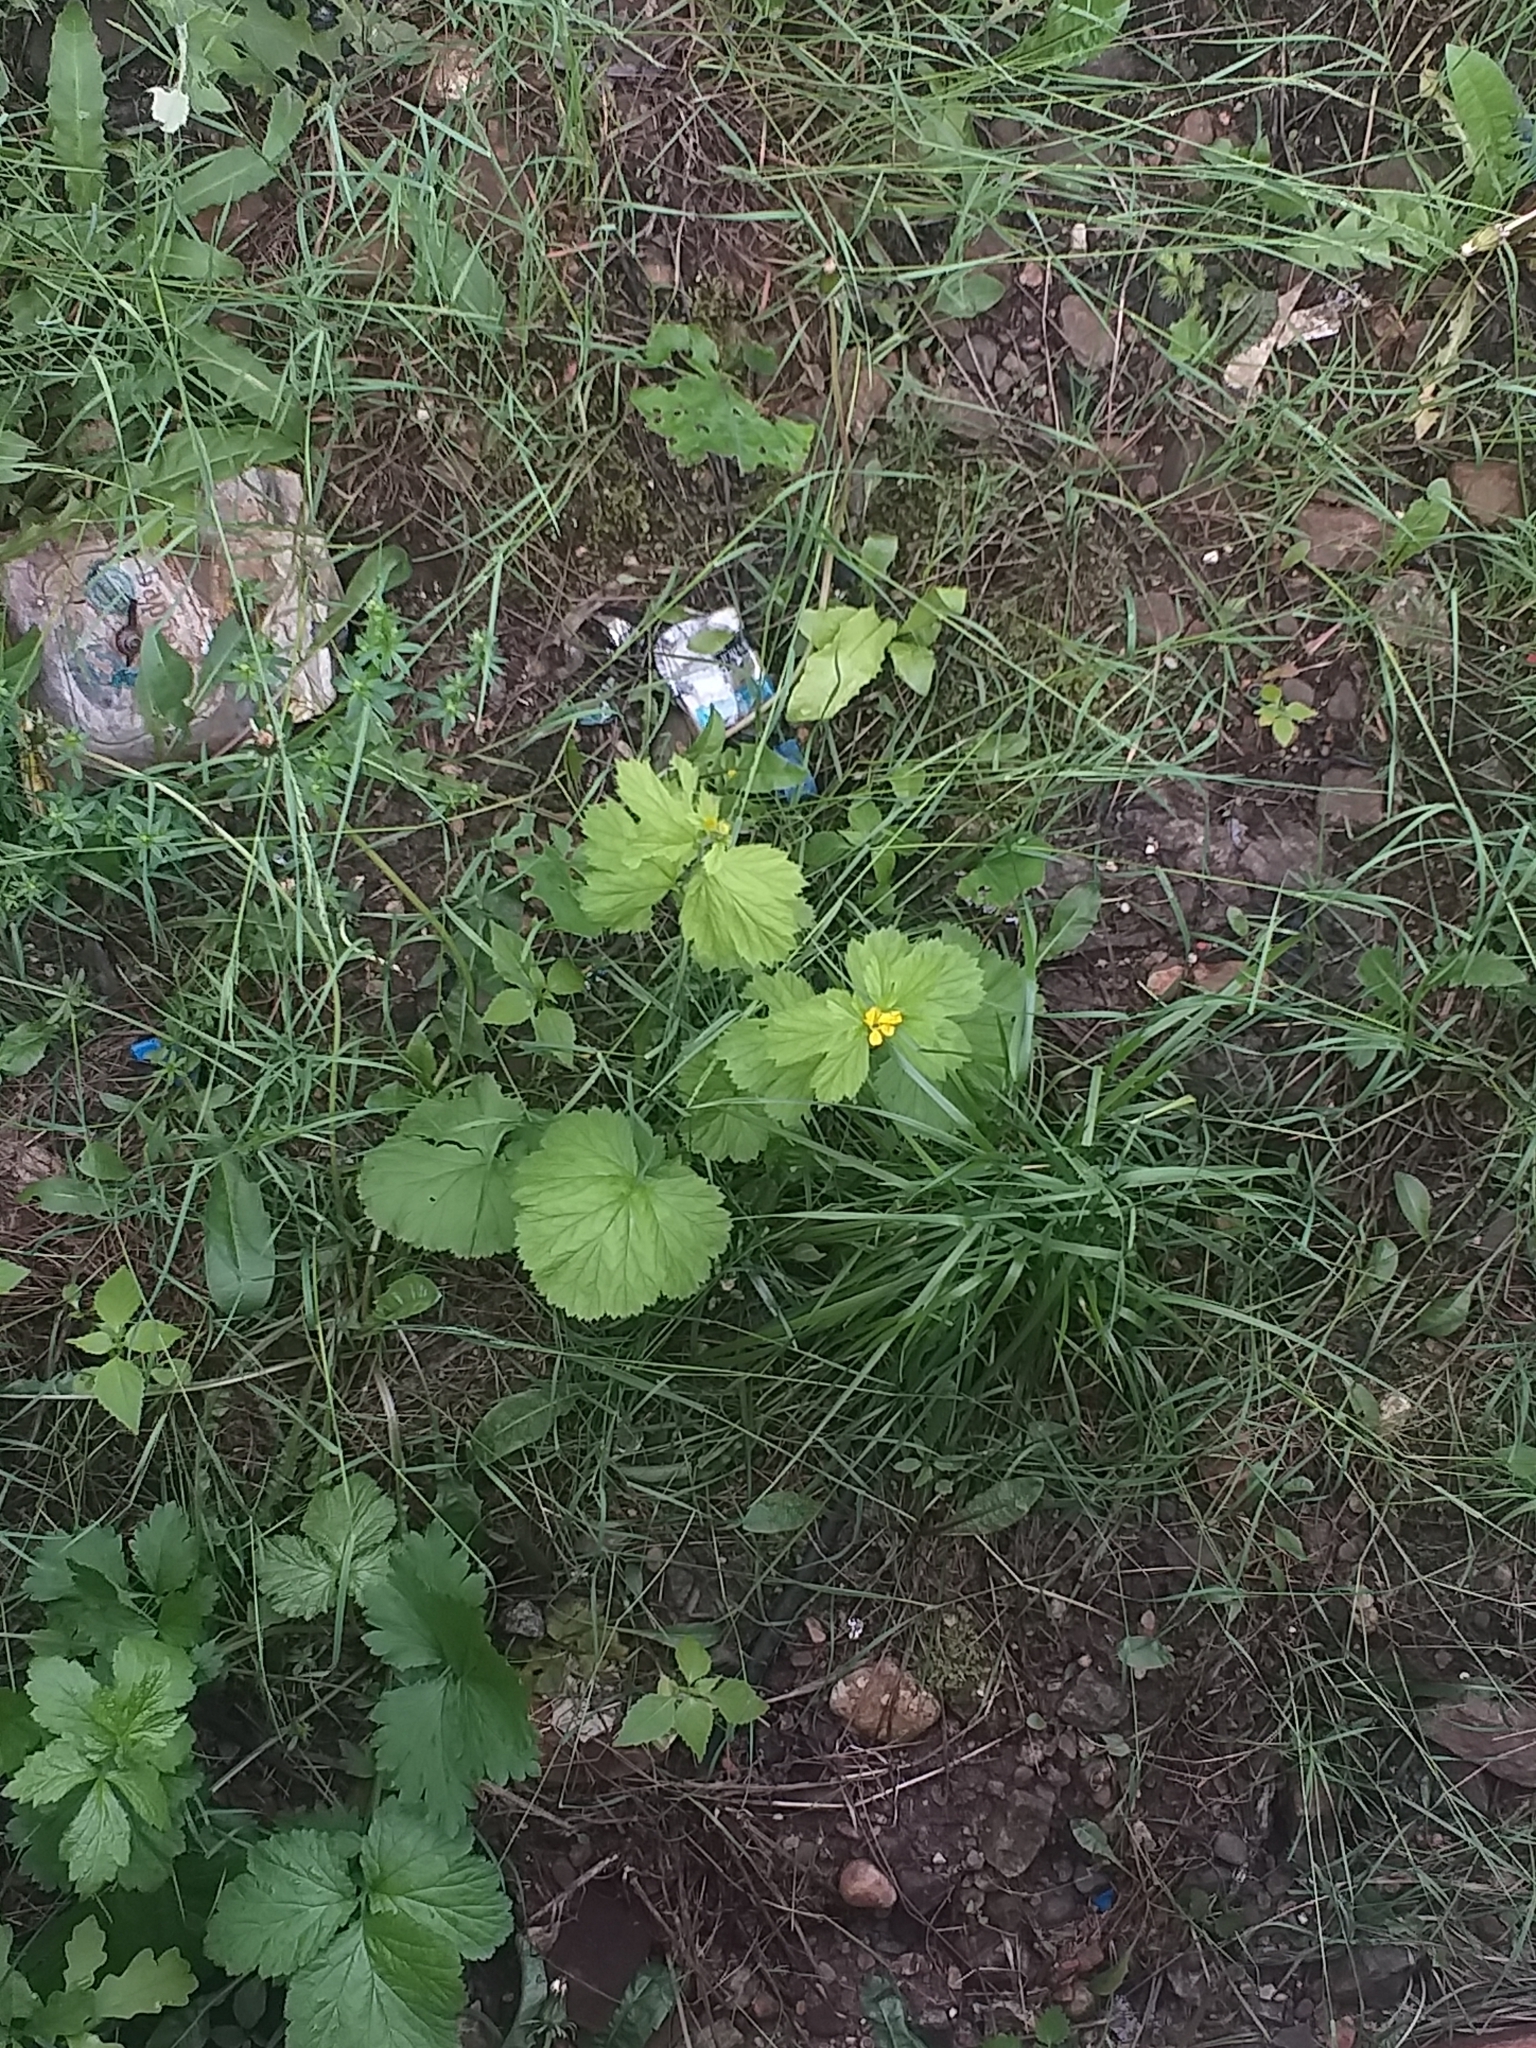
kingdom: Plantae
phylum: Tracheophyta
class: Magnoliopsida
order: Rosales
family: Rosaceae
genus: Geum
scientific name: Geum macrophyllum
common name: Large-leaved avens
